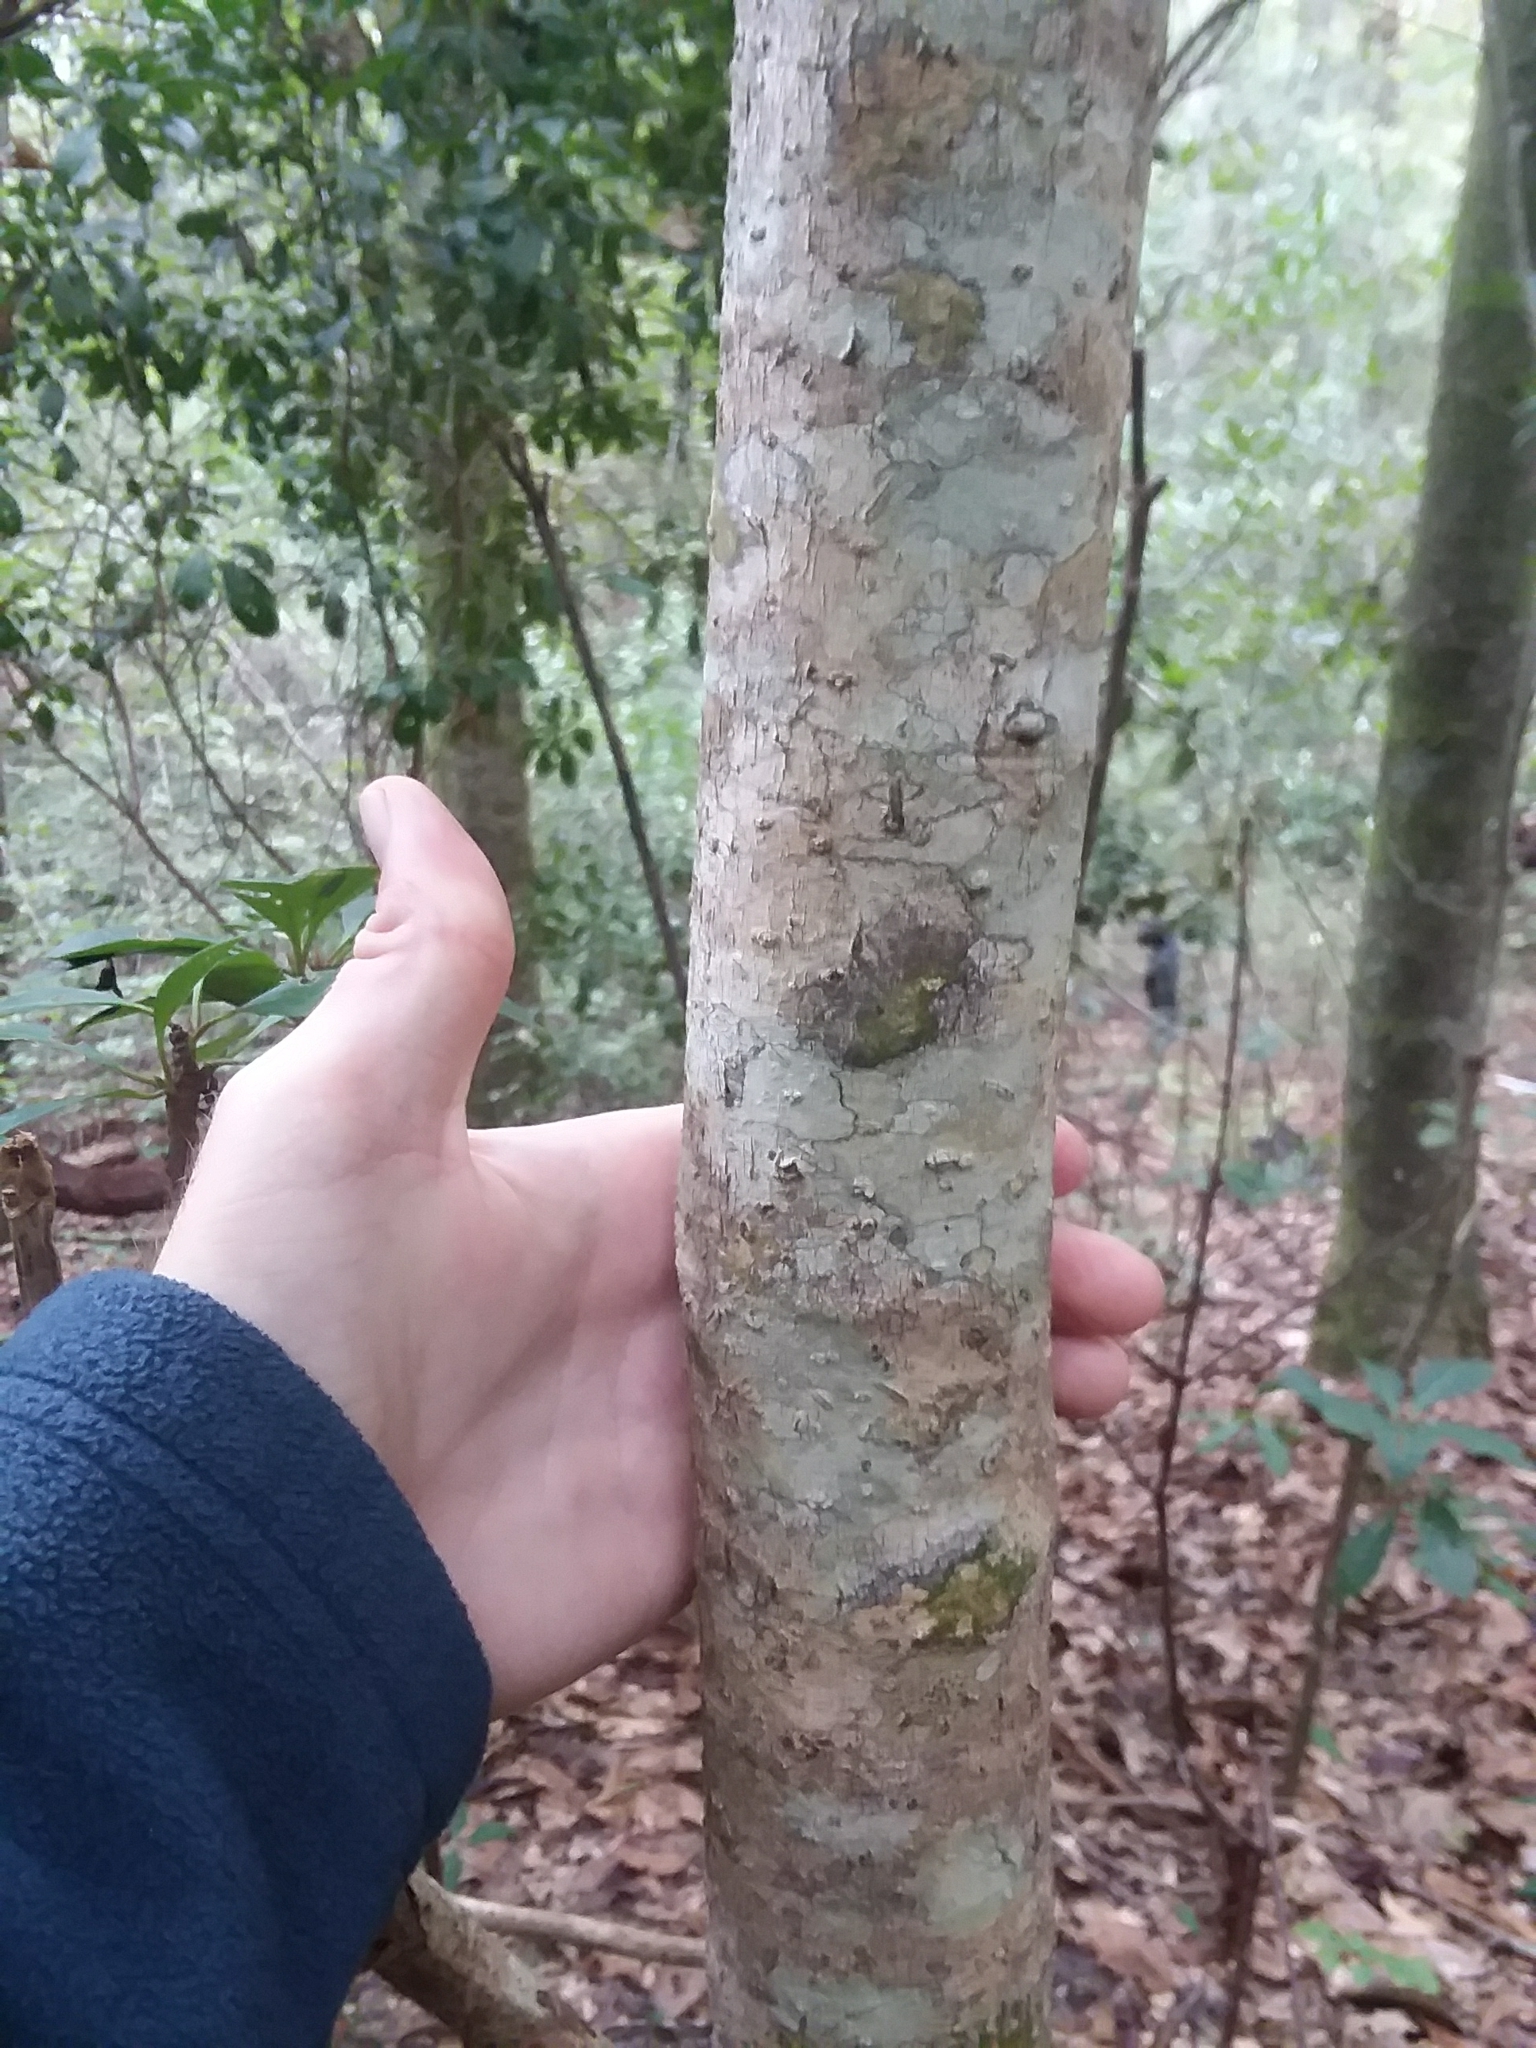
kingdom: Plantae
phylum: Tracheophyta
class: Magnoliopsida
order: Magnoliales
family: Magnoliaceae
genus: Magnolia
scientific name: Magnolia macrophylla
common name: Big-leaf magnolia
